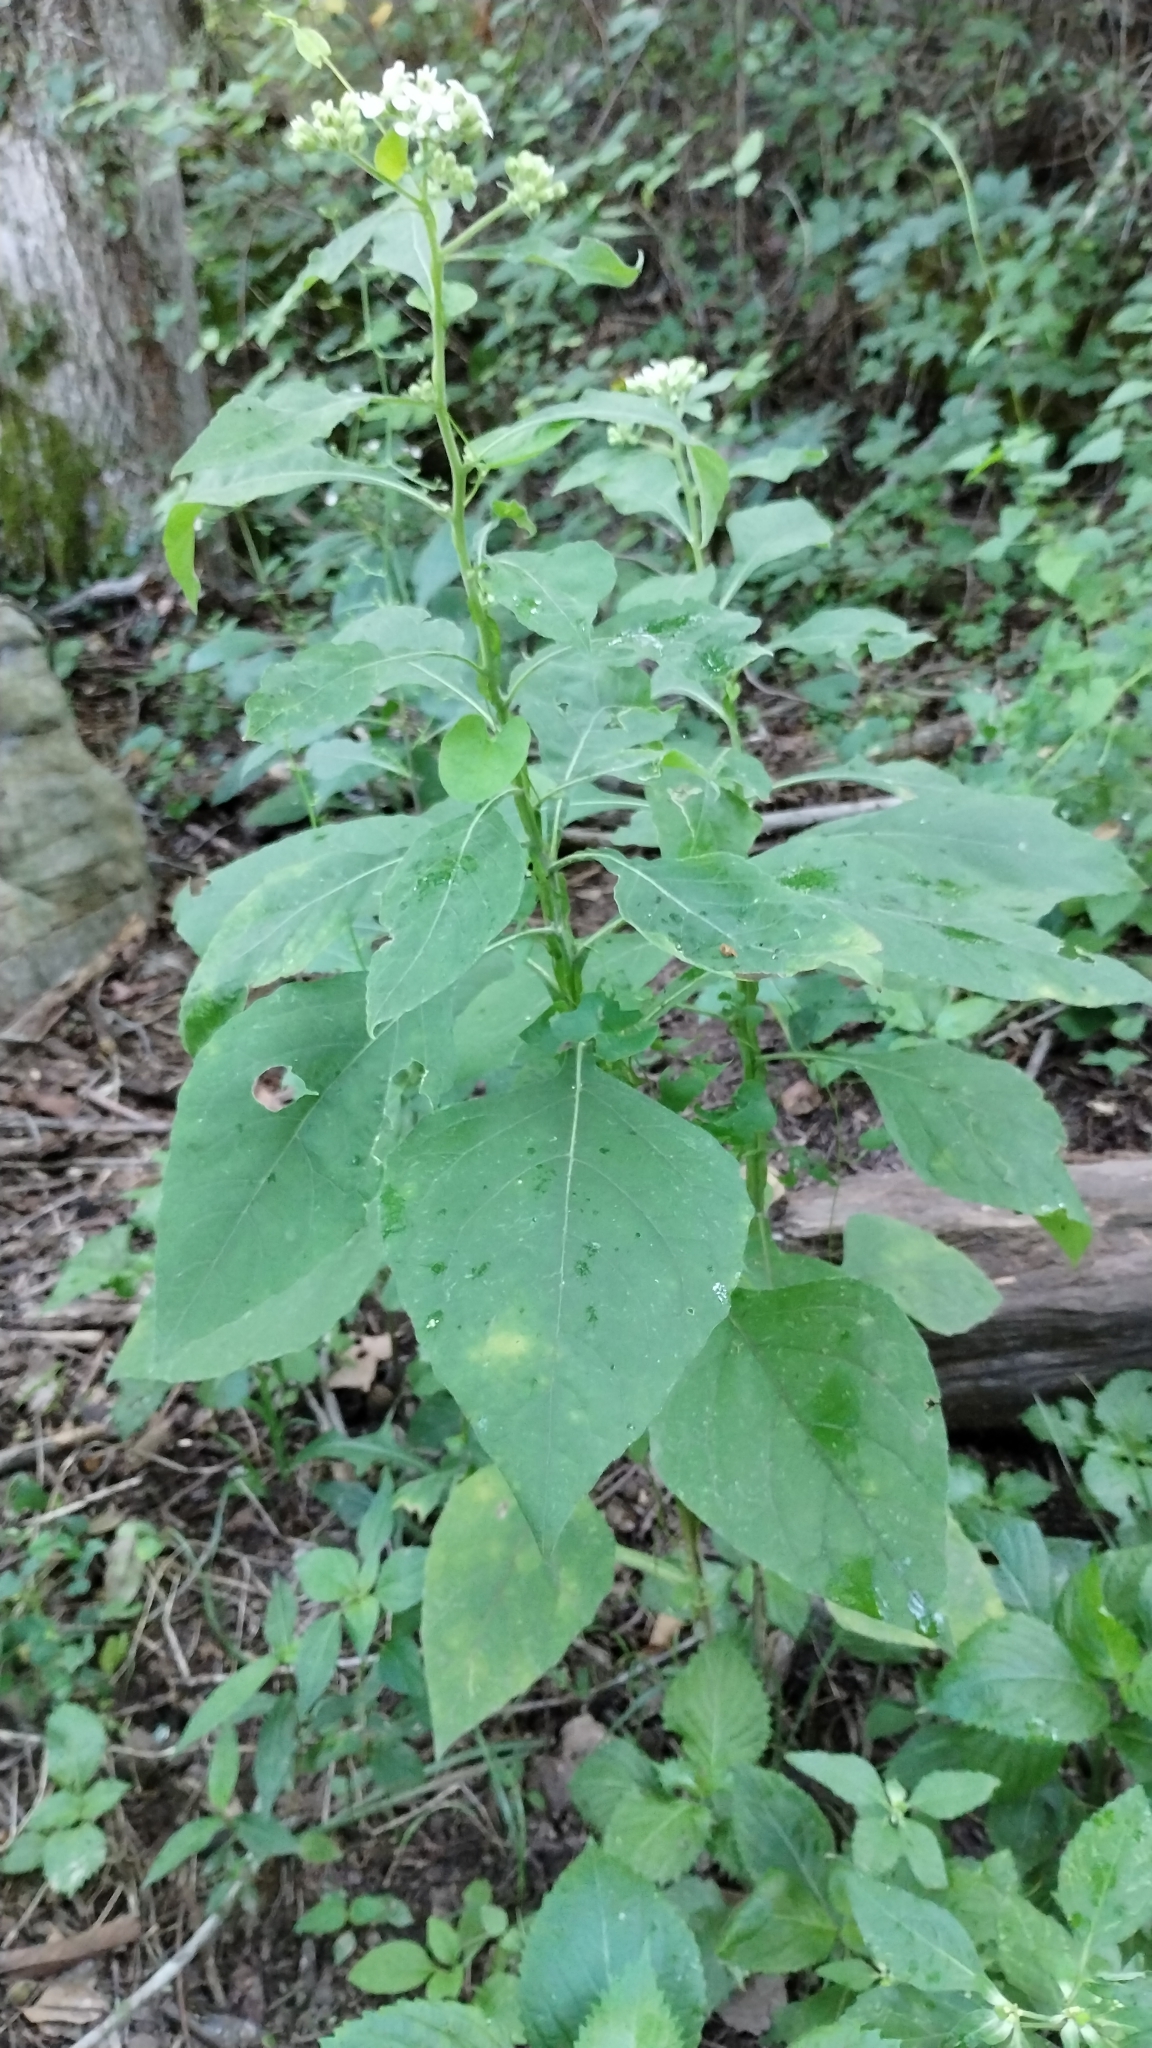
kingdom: Plantae
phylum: Tracheophyta
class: Magnoliopsida
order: Asterales
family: Asteraceae
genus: Verbesina
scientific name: Verbesina virginica
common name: Frostweed
